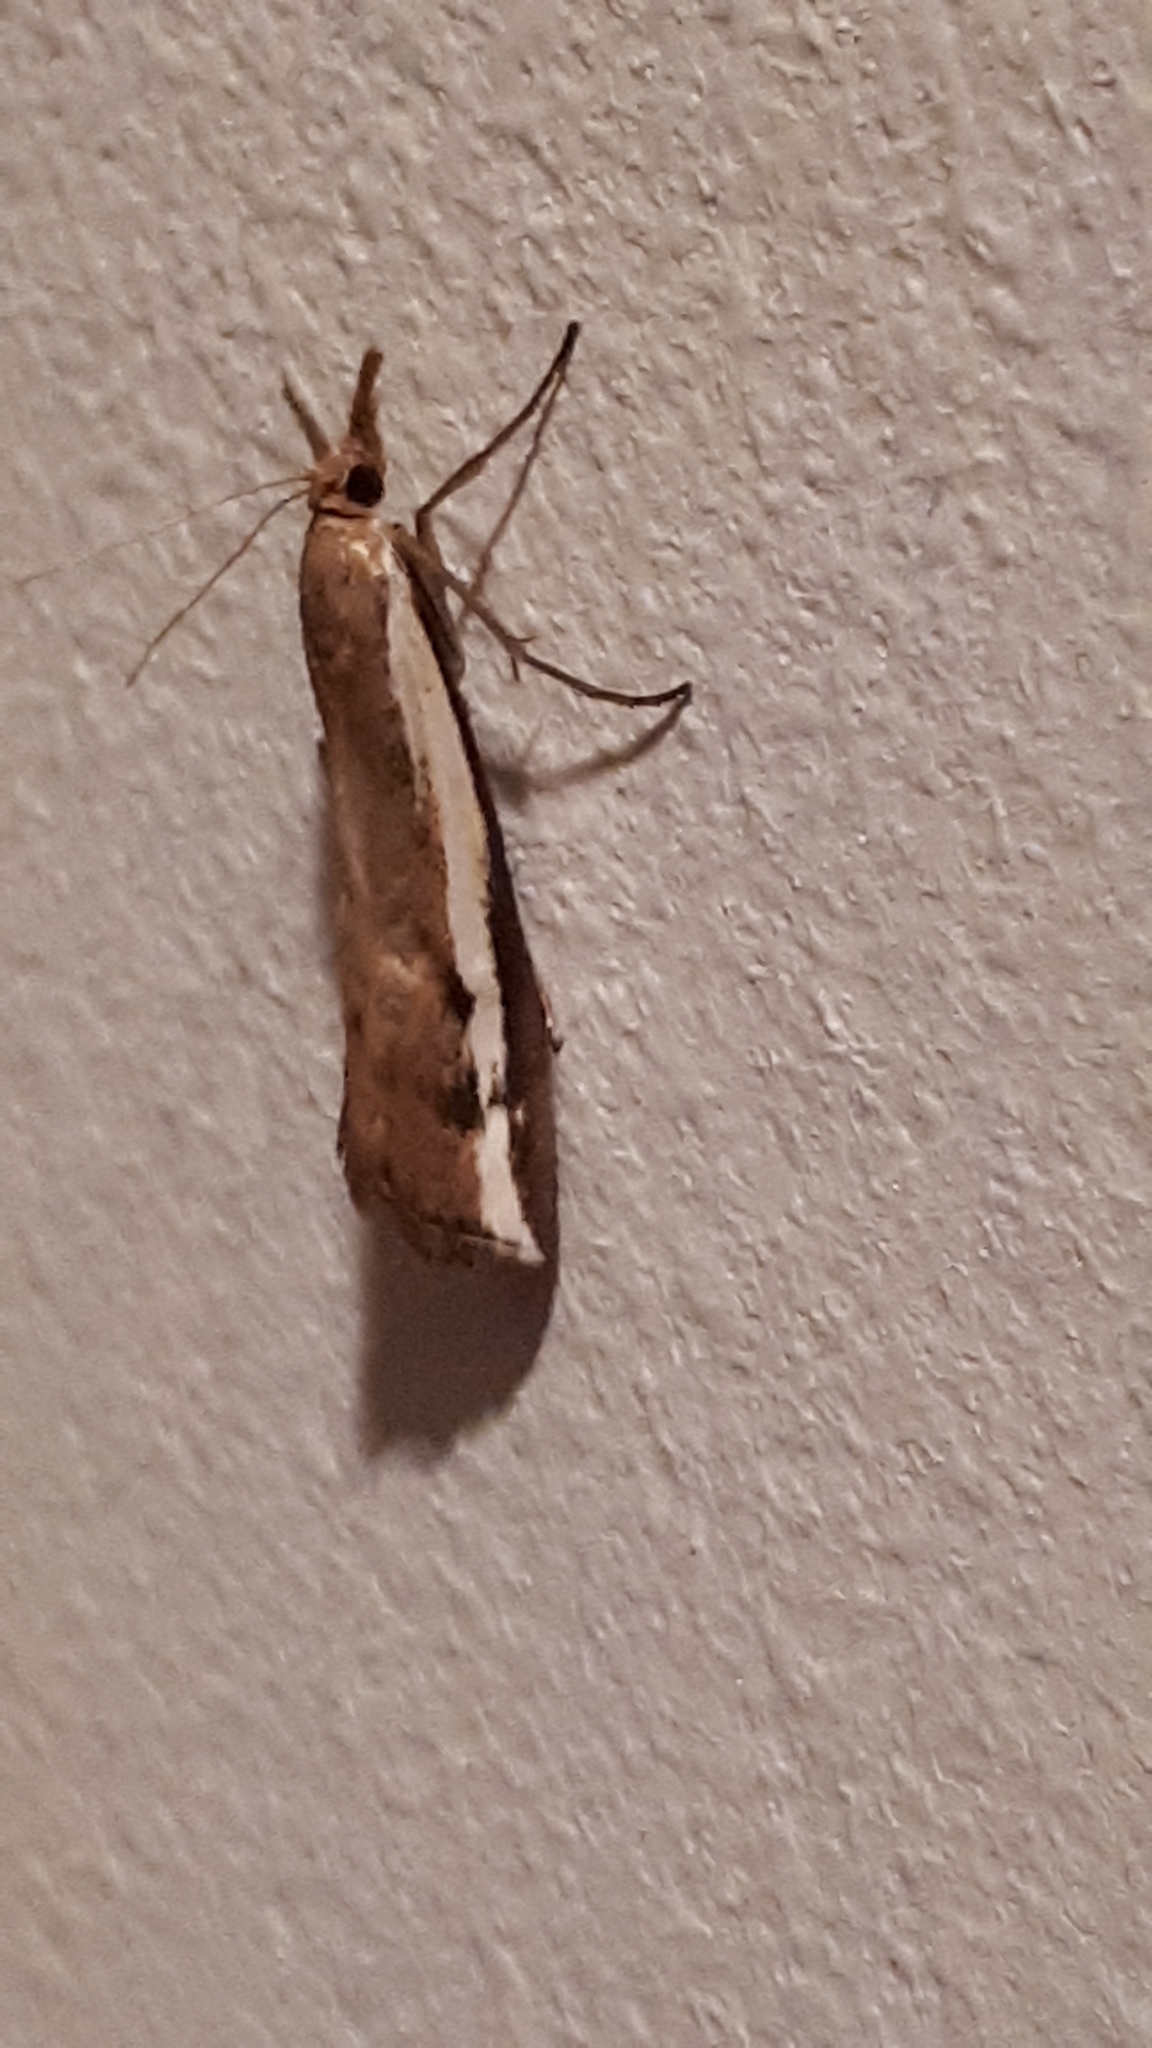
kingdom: Animalia
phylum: Arthropoda
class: Insecta
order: Lepidoptera
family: Crambidae
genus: Orocrambus
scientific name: Orocrambus flexuosellus
